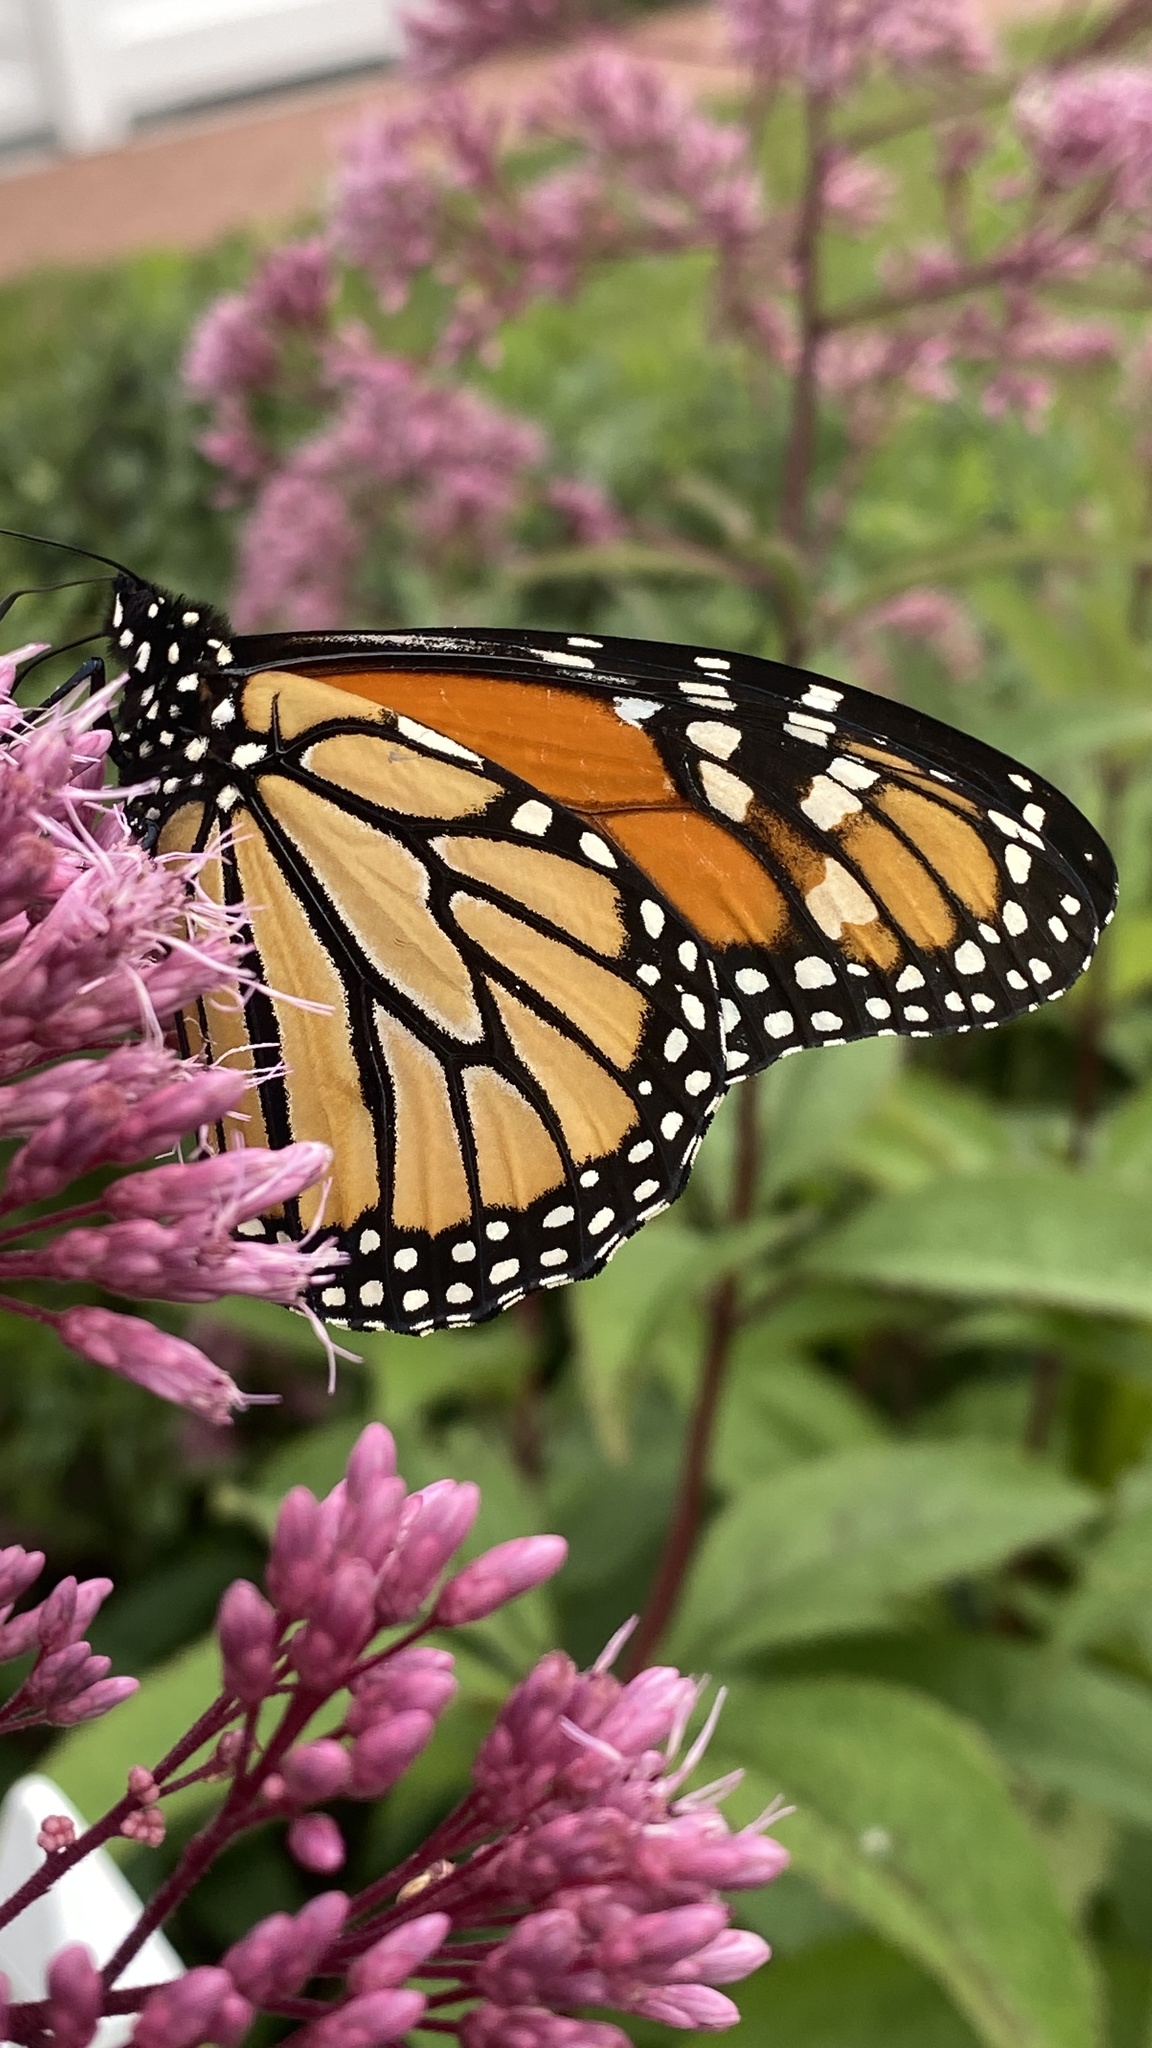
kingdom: Animalia
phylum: Arthropoda
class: Insecta
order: Lepidoptera
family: Nymphalidae
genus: Danaus
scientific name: Danaus plexippus
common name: Monarch
